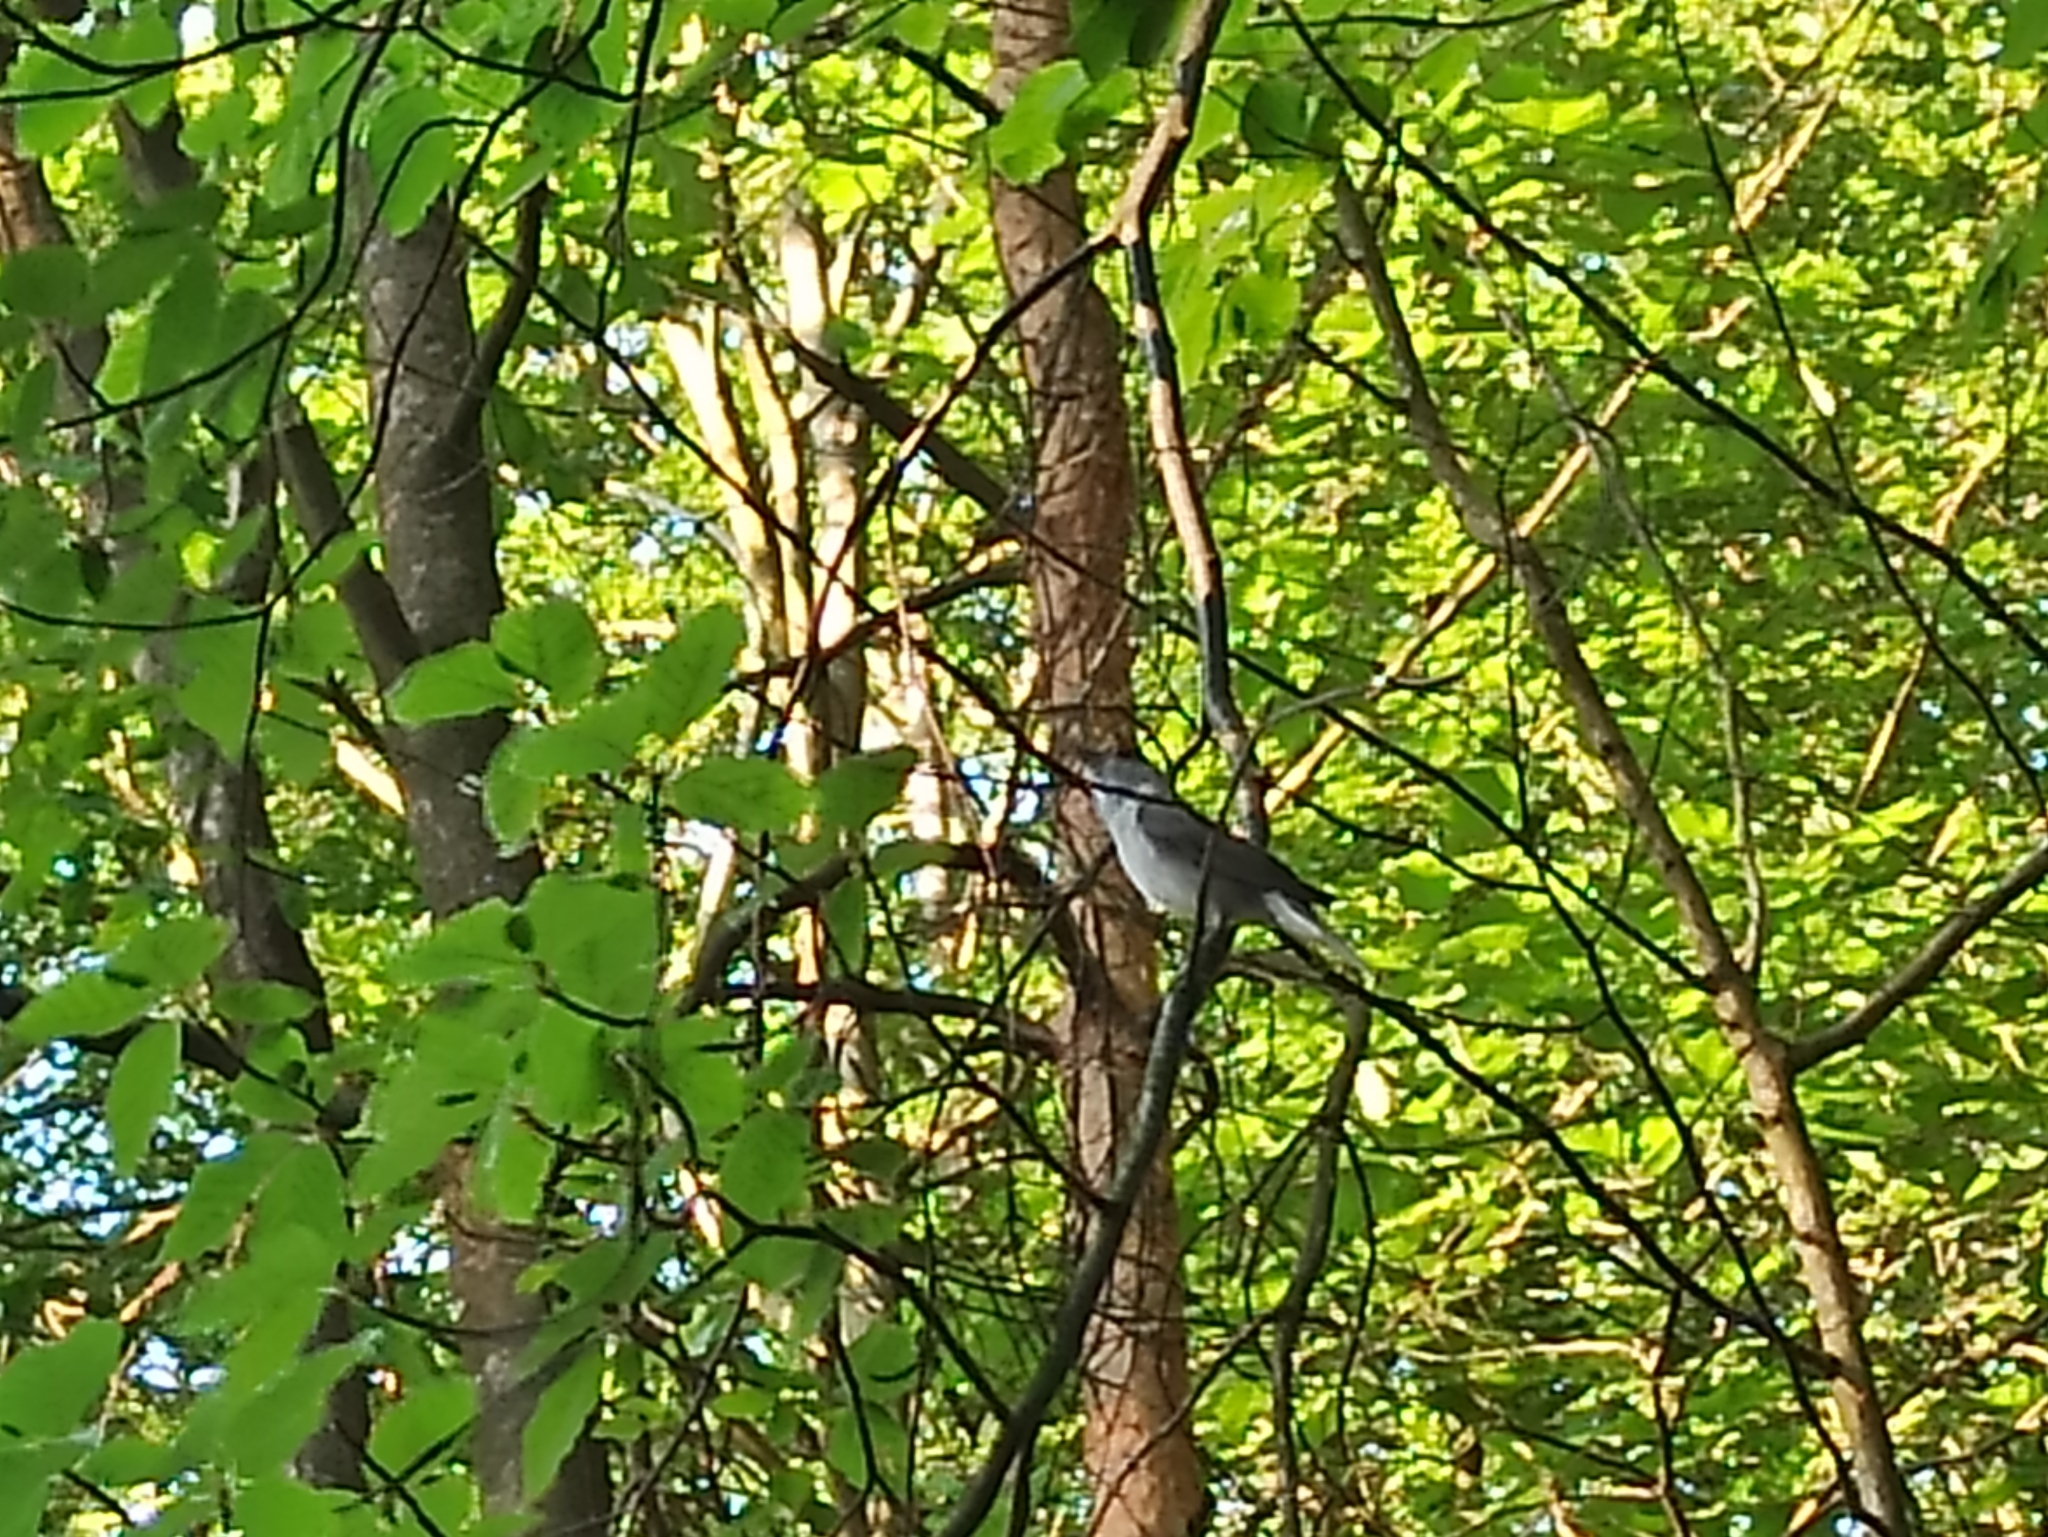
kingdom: Animalia
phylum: Chordata
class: Aves
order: Passeriformes
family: Sylviidae
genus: Sylvia
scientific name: Sylvia atricapilla
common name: Eurasian blackcap
